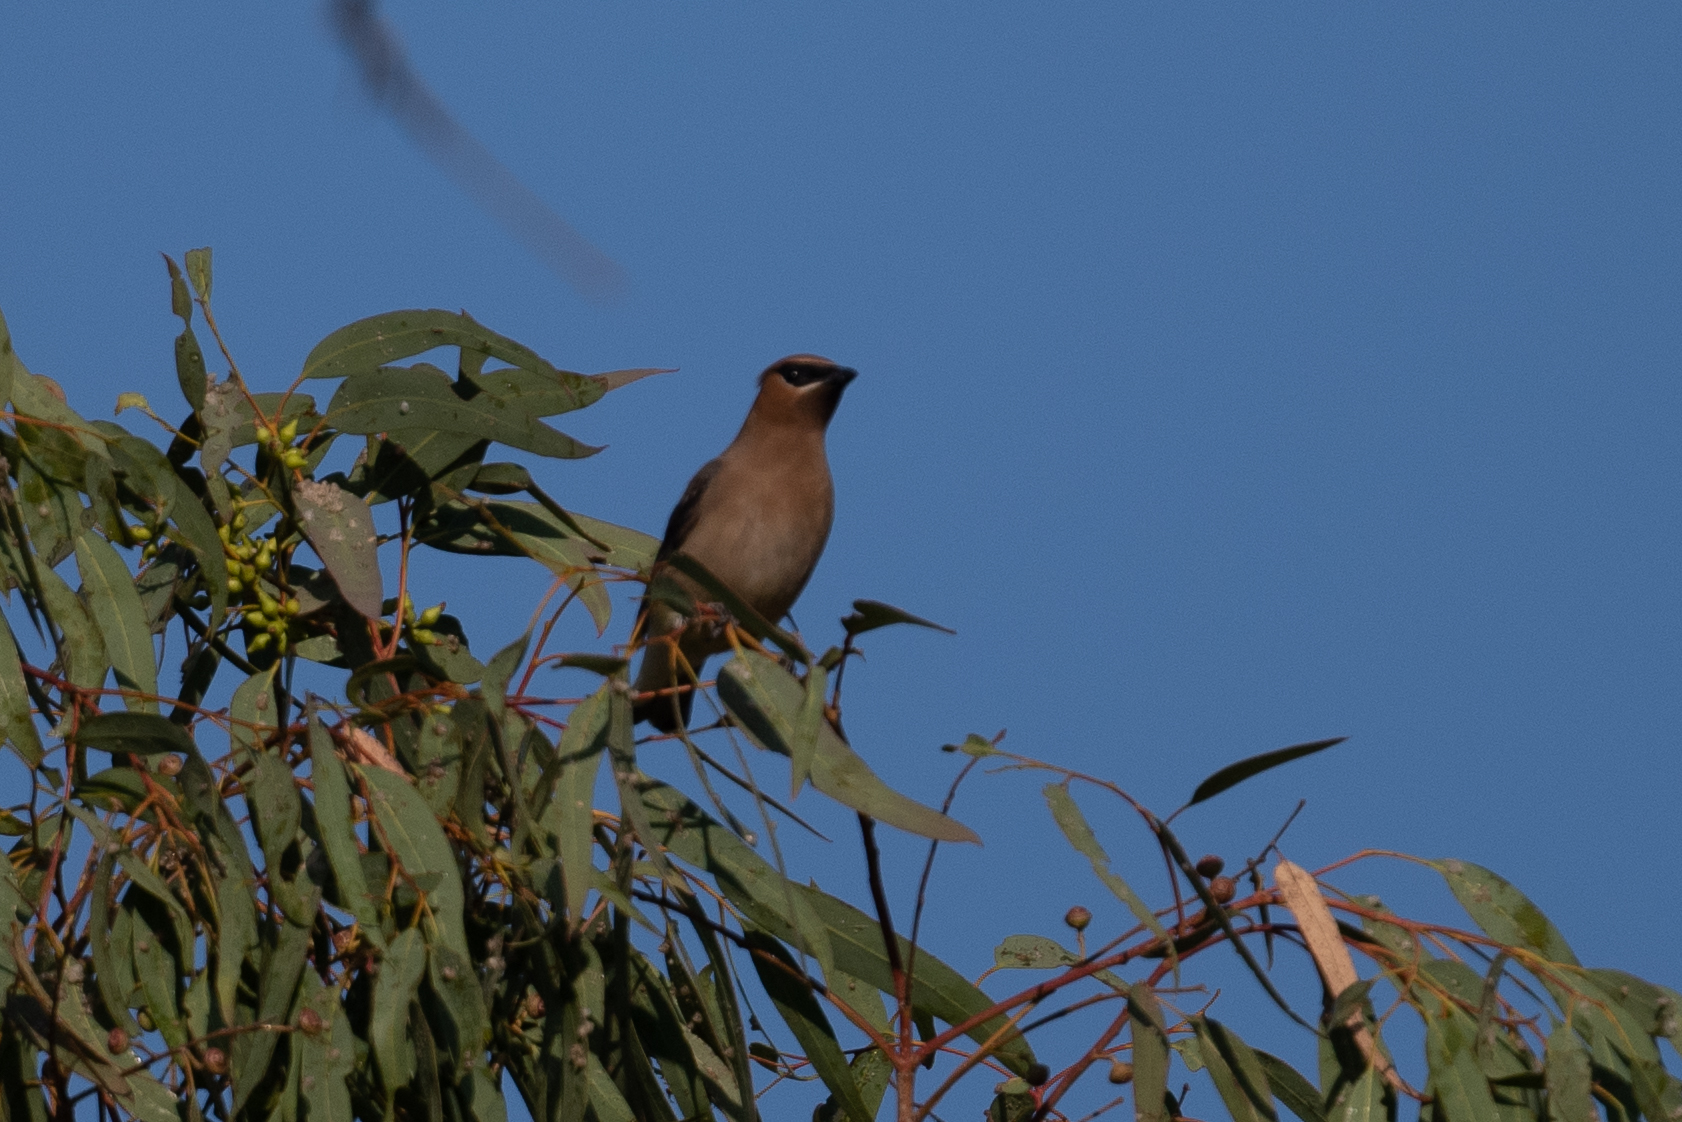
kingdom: Animalia
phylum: Chordata
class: Aves
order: Passeriformes
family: Bombycillidae
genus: Bombycilla
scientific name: Bombycilla cedrorum
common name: Cedar waxwing
